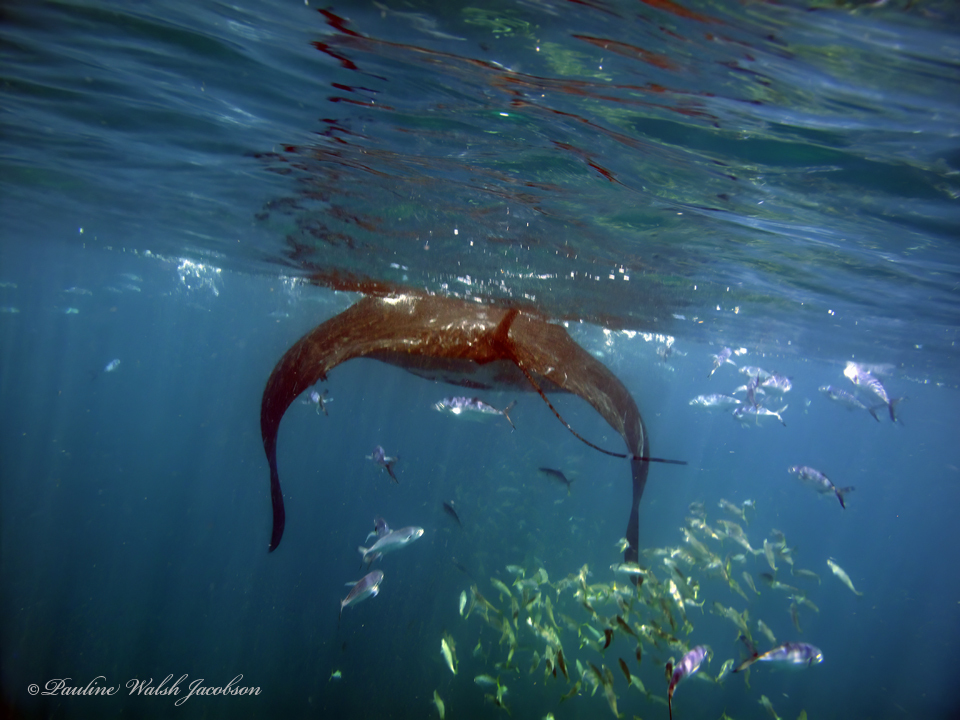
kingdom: Animalia
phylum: Chordata
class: Elasmobranchii
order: Myliobatiformes
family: Myliobatidae
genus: Mobula
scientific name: Mobula birostris
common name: Manta ray
